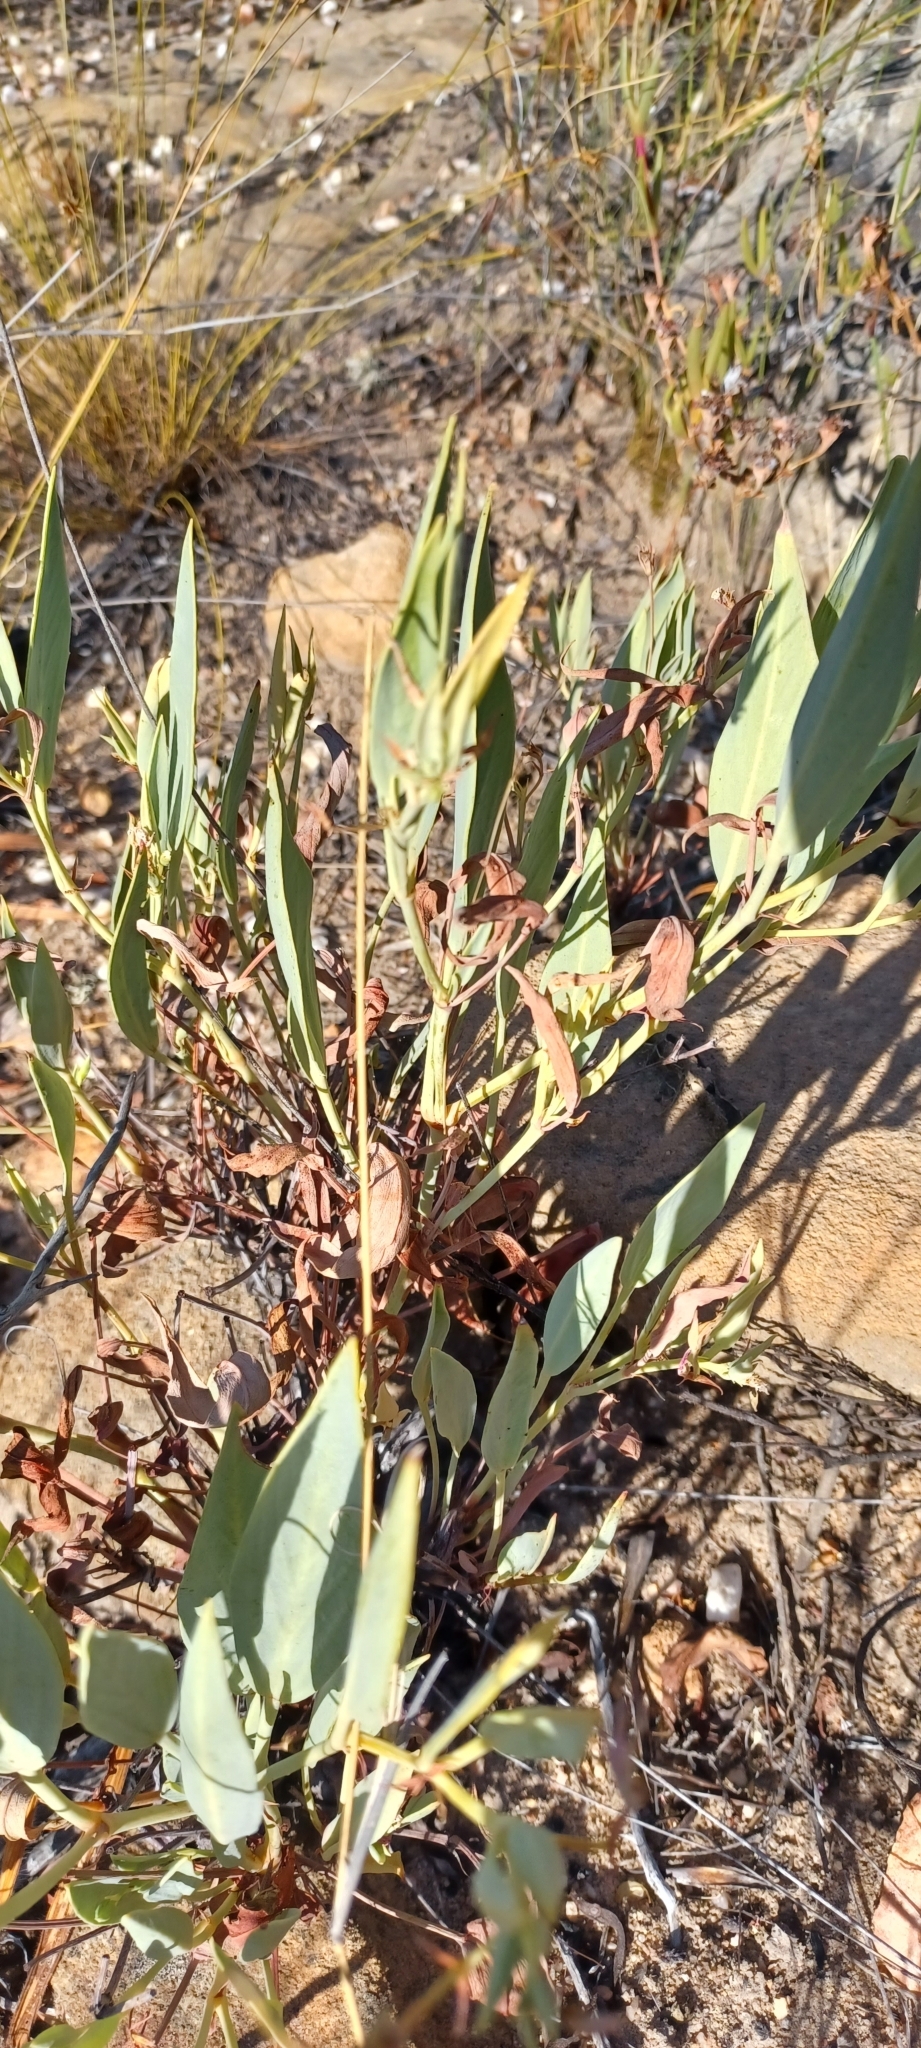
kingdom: Plantae
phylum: Tracheophyta
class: Magnoliopsida
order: Geraniales
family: Geraniaceae
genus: Pelargonium
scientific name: Pelargonium lanceolatum
